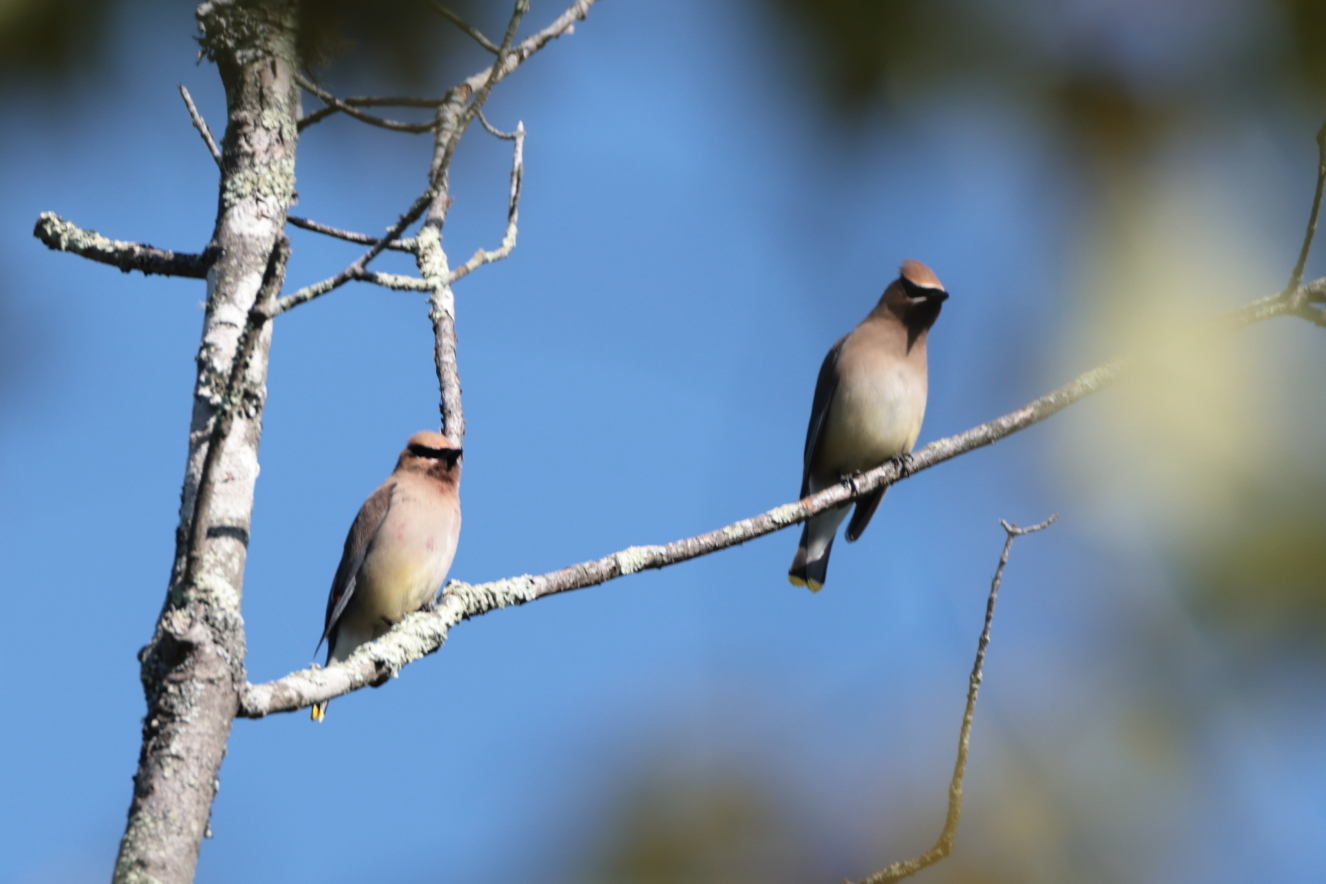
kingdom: Animalia
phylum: Chordata
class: Aves
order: Passeriformes
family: Bombycillidae
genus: Bombycilla
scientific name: Bombycilla cedrorum
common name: Cedar waxwing
